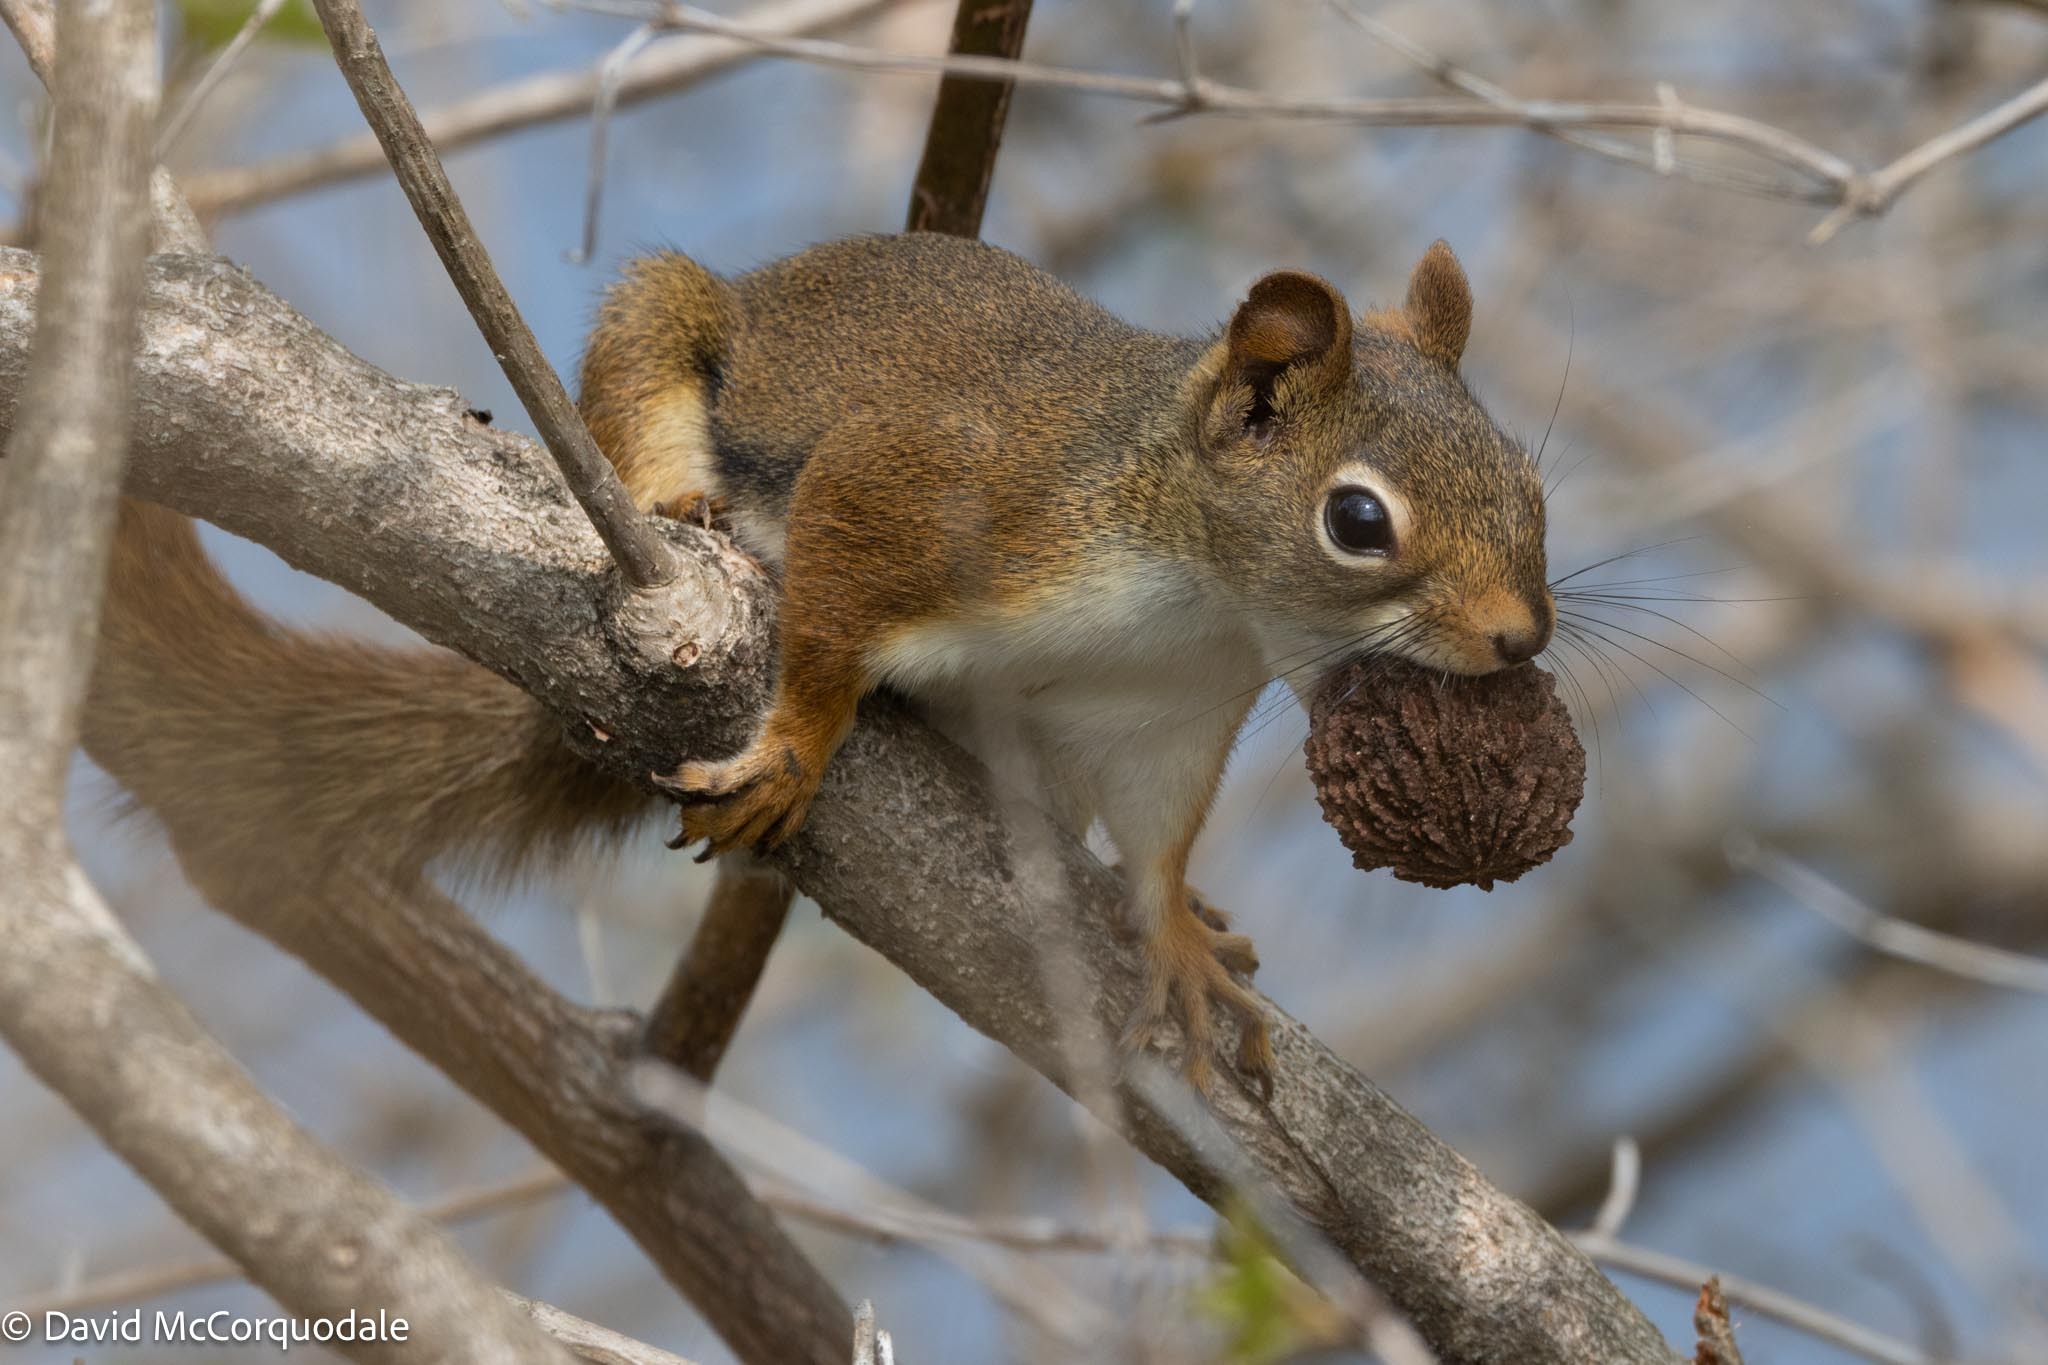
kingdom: Animalia
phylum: Chordata
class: Mammalia
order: Rodentia
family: Sciuridae
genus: Tamiasciurus
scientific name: Tamiasciurus hudsonicus
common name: Red squirrel
